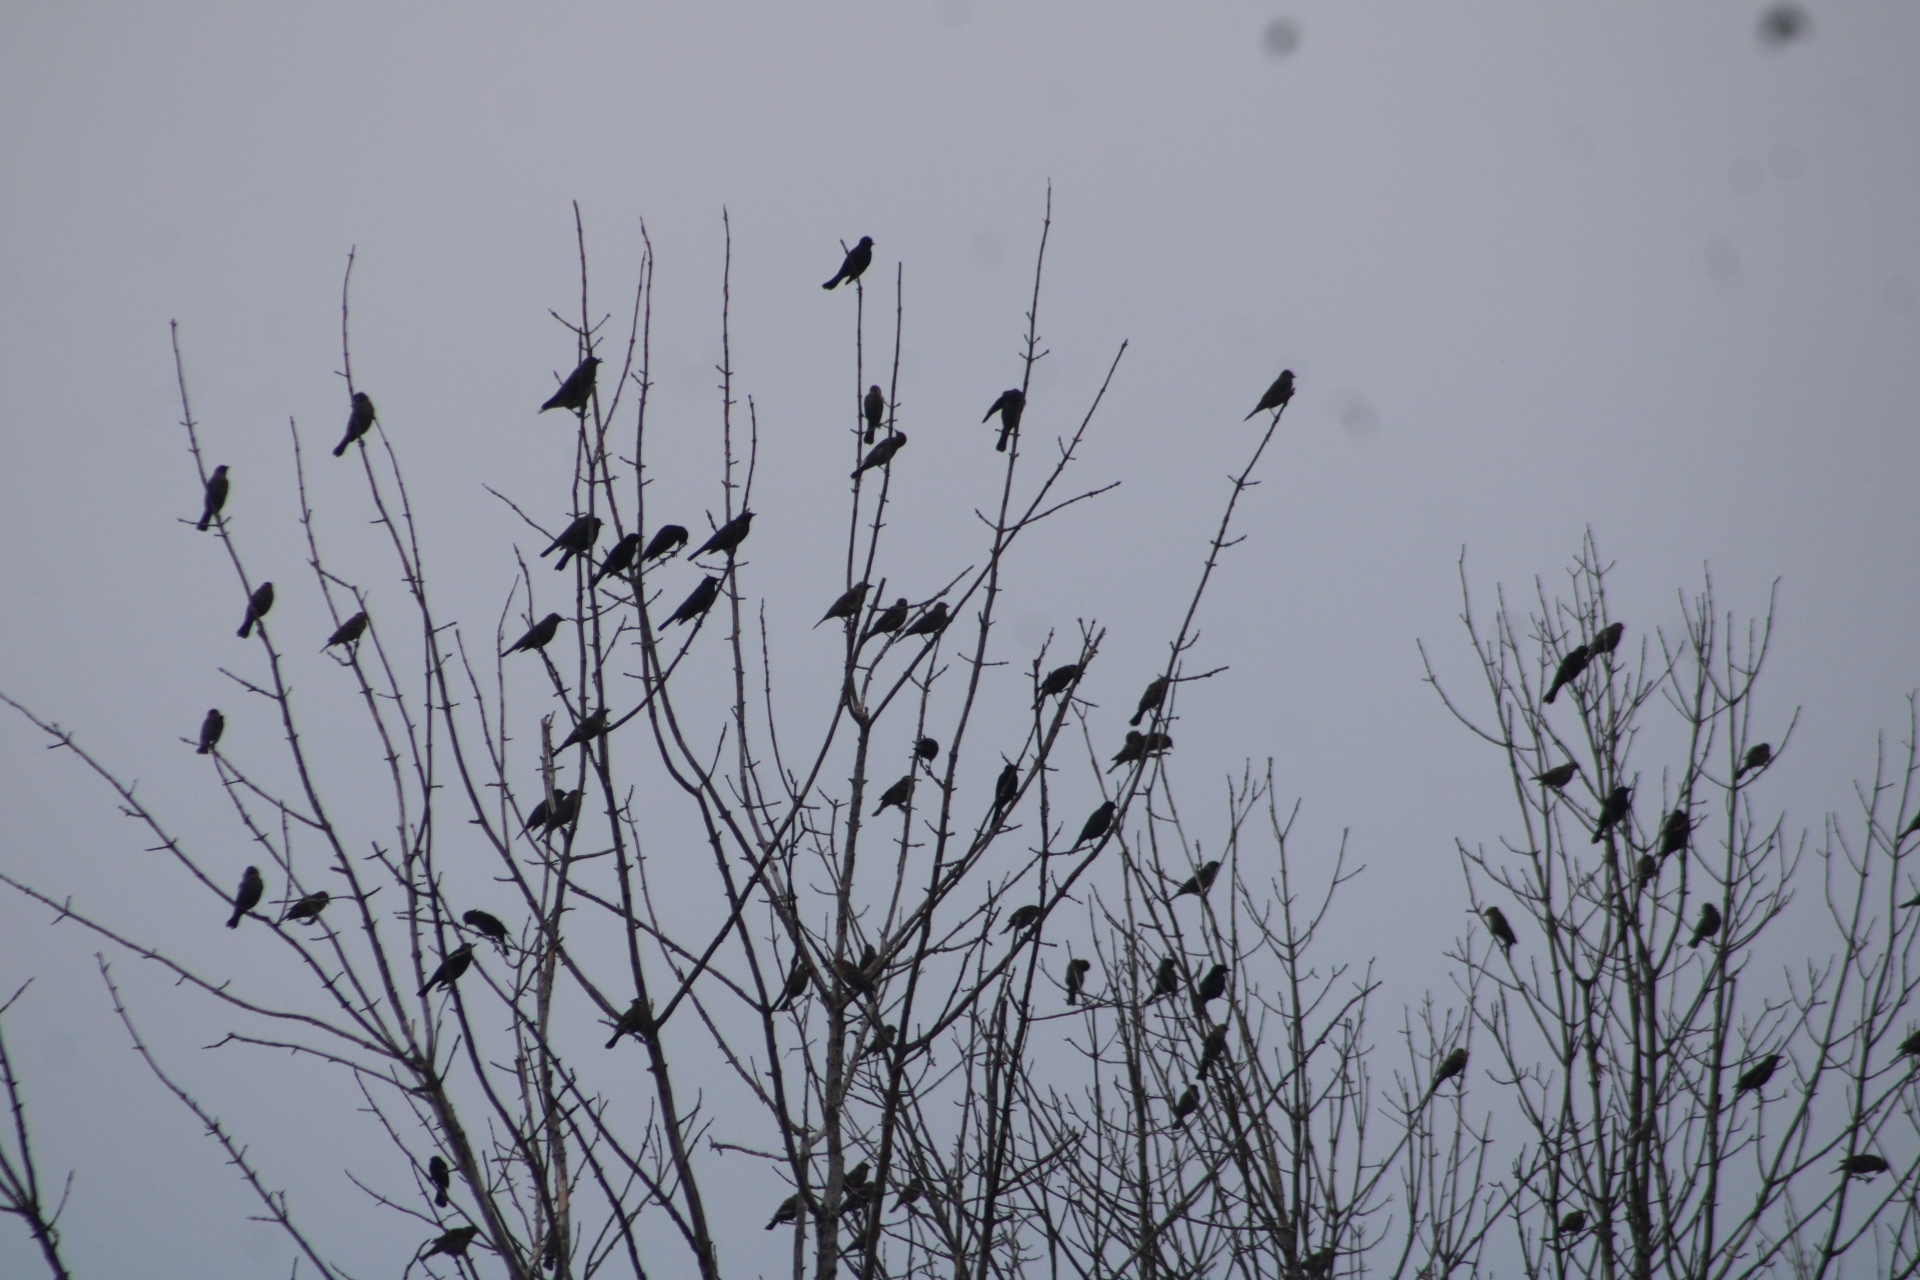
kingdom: Animalia
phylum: Chordata
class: Aves
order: Passeriformes
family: Icteridae
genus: Agelaius
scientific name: Agelaius phoeniceus
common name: Red-winged blackbird
